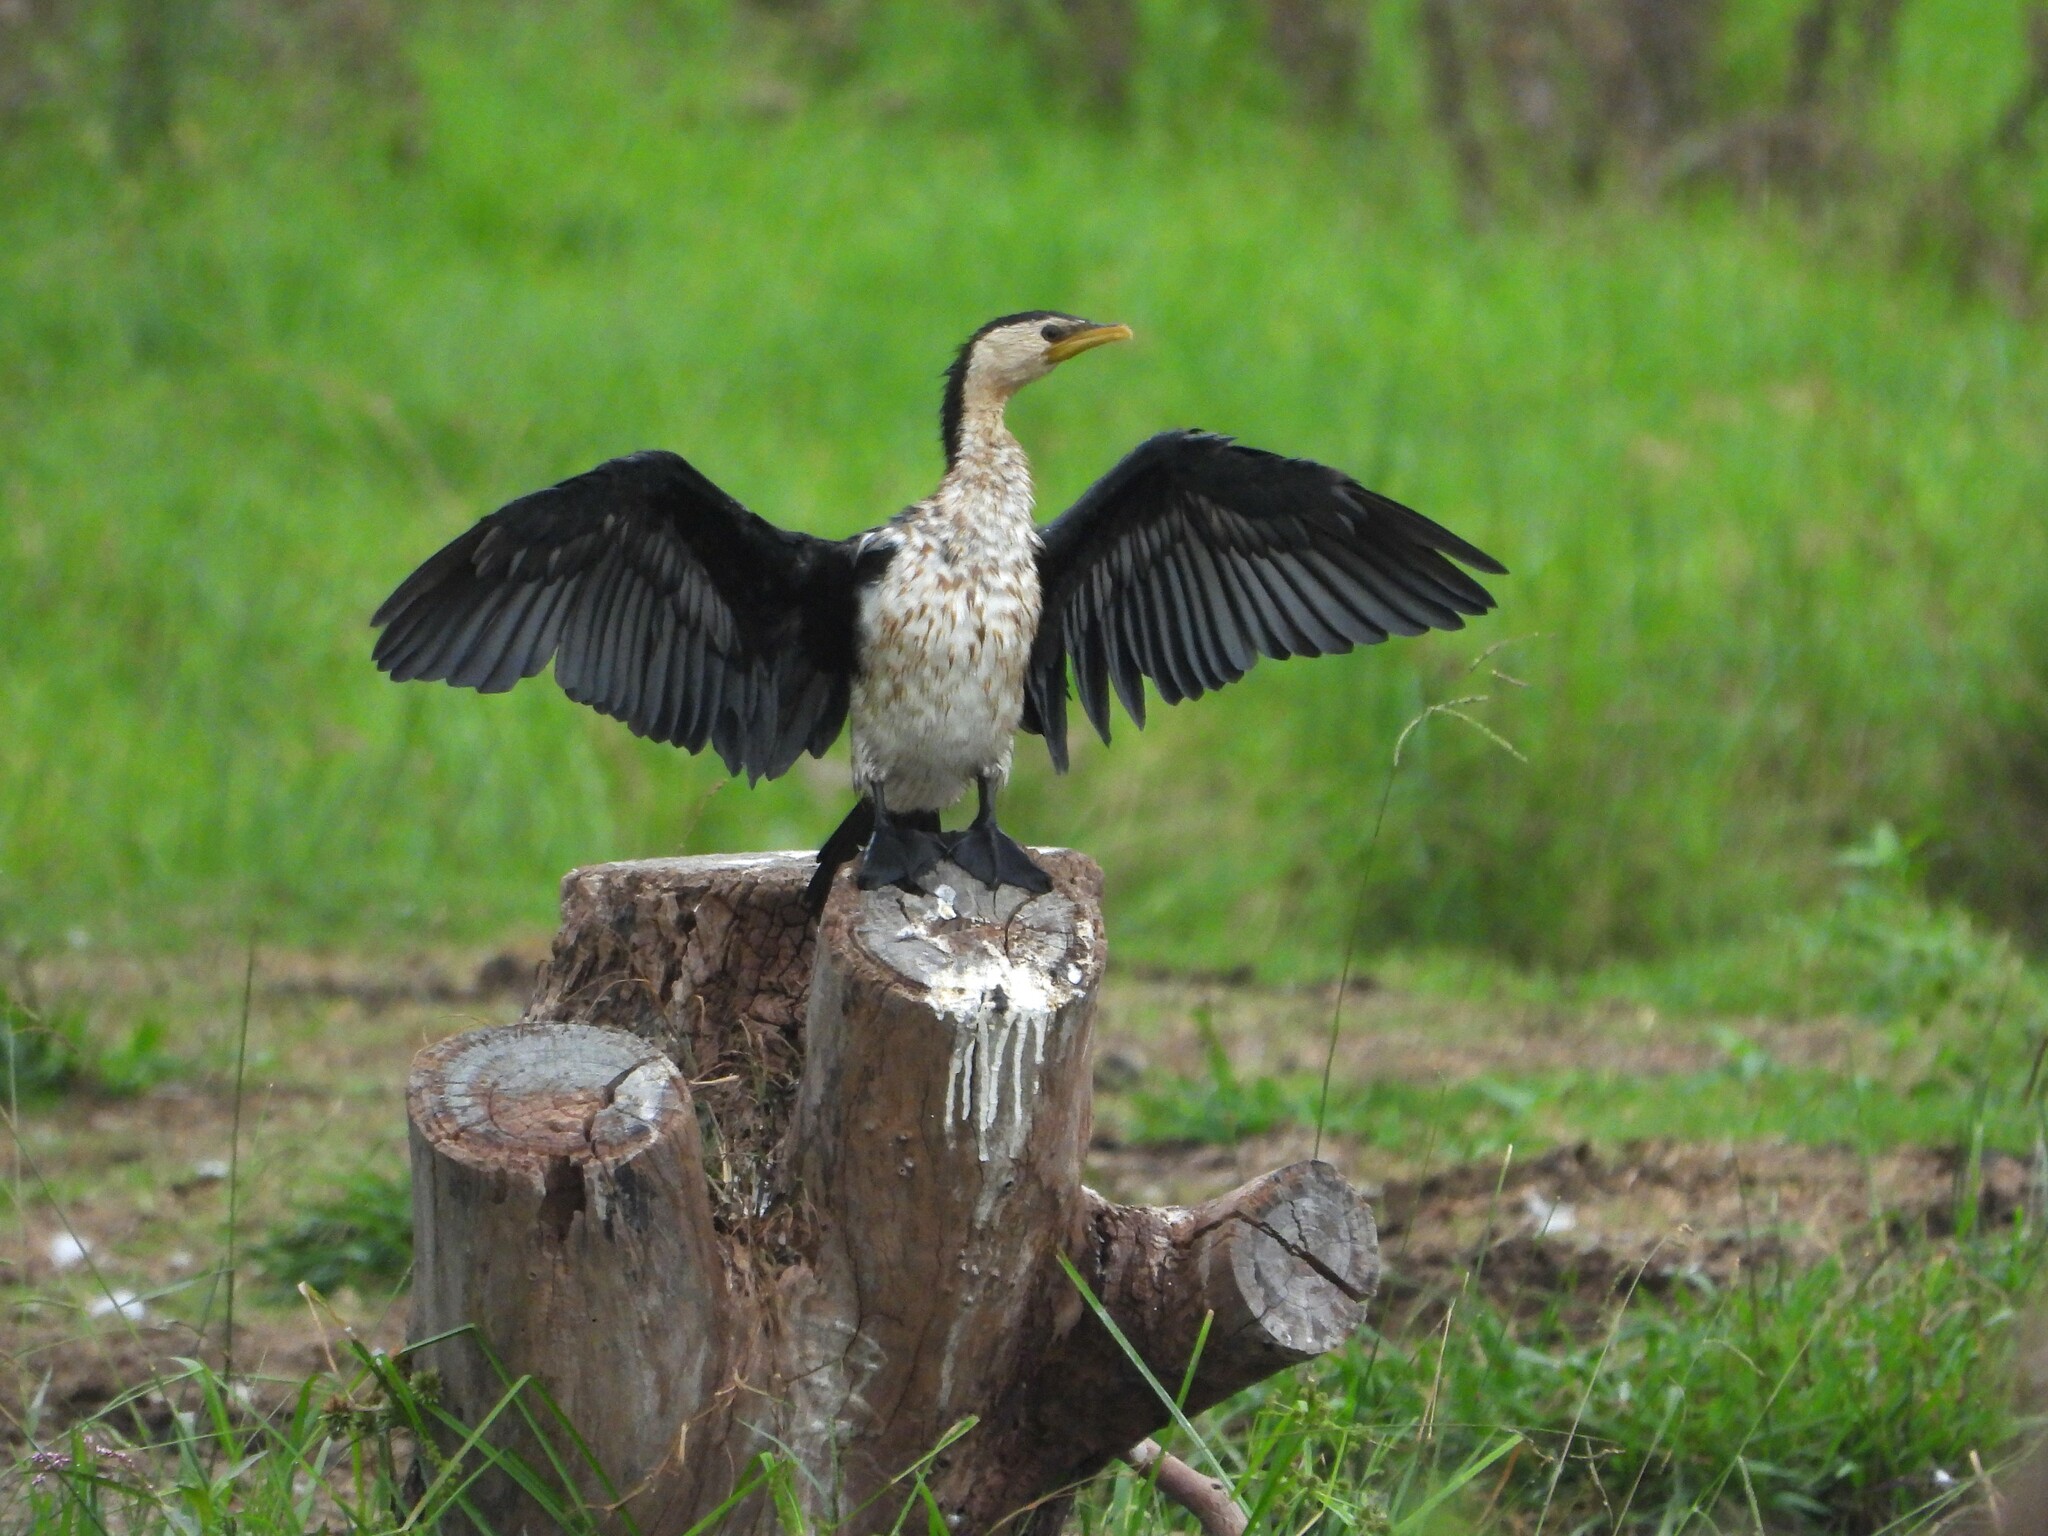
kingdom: Animalia
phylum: Chordata
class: Aves
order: Suliformes
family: Phalacrocoracidae
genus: Microcarbo
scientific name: Microcarbo melanoleucos
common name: Little pied cormorant
